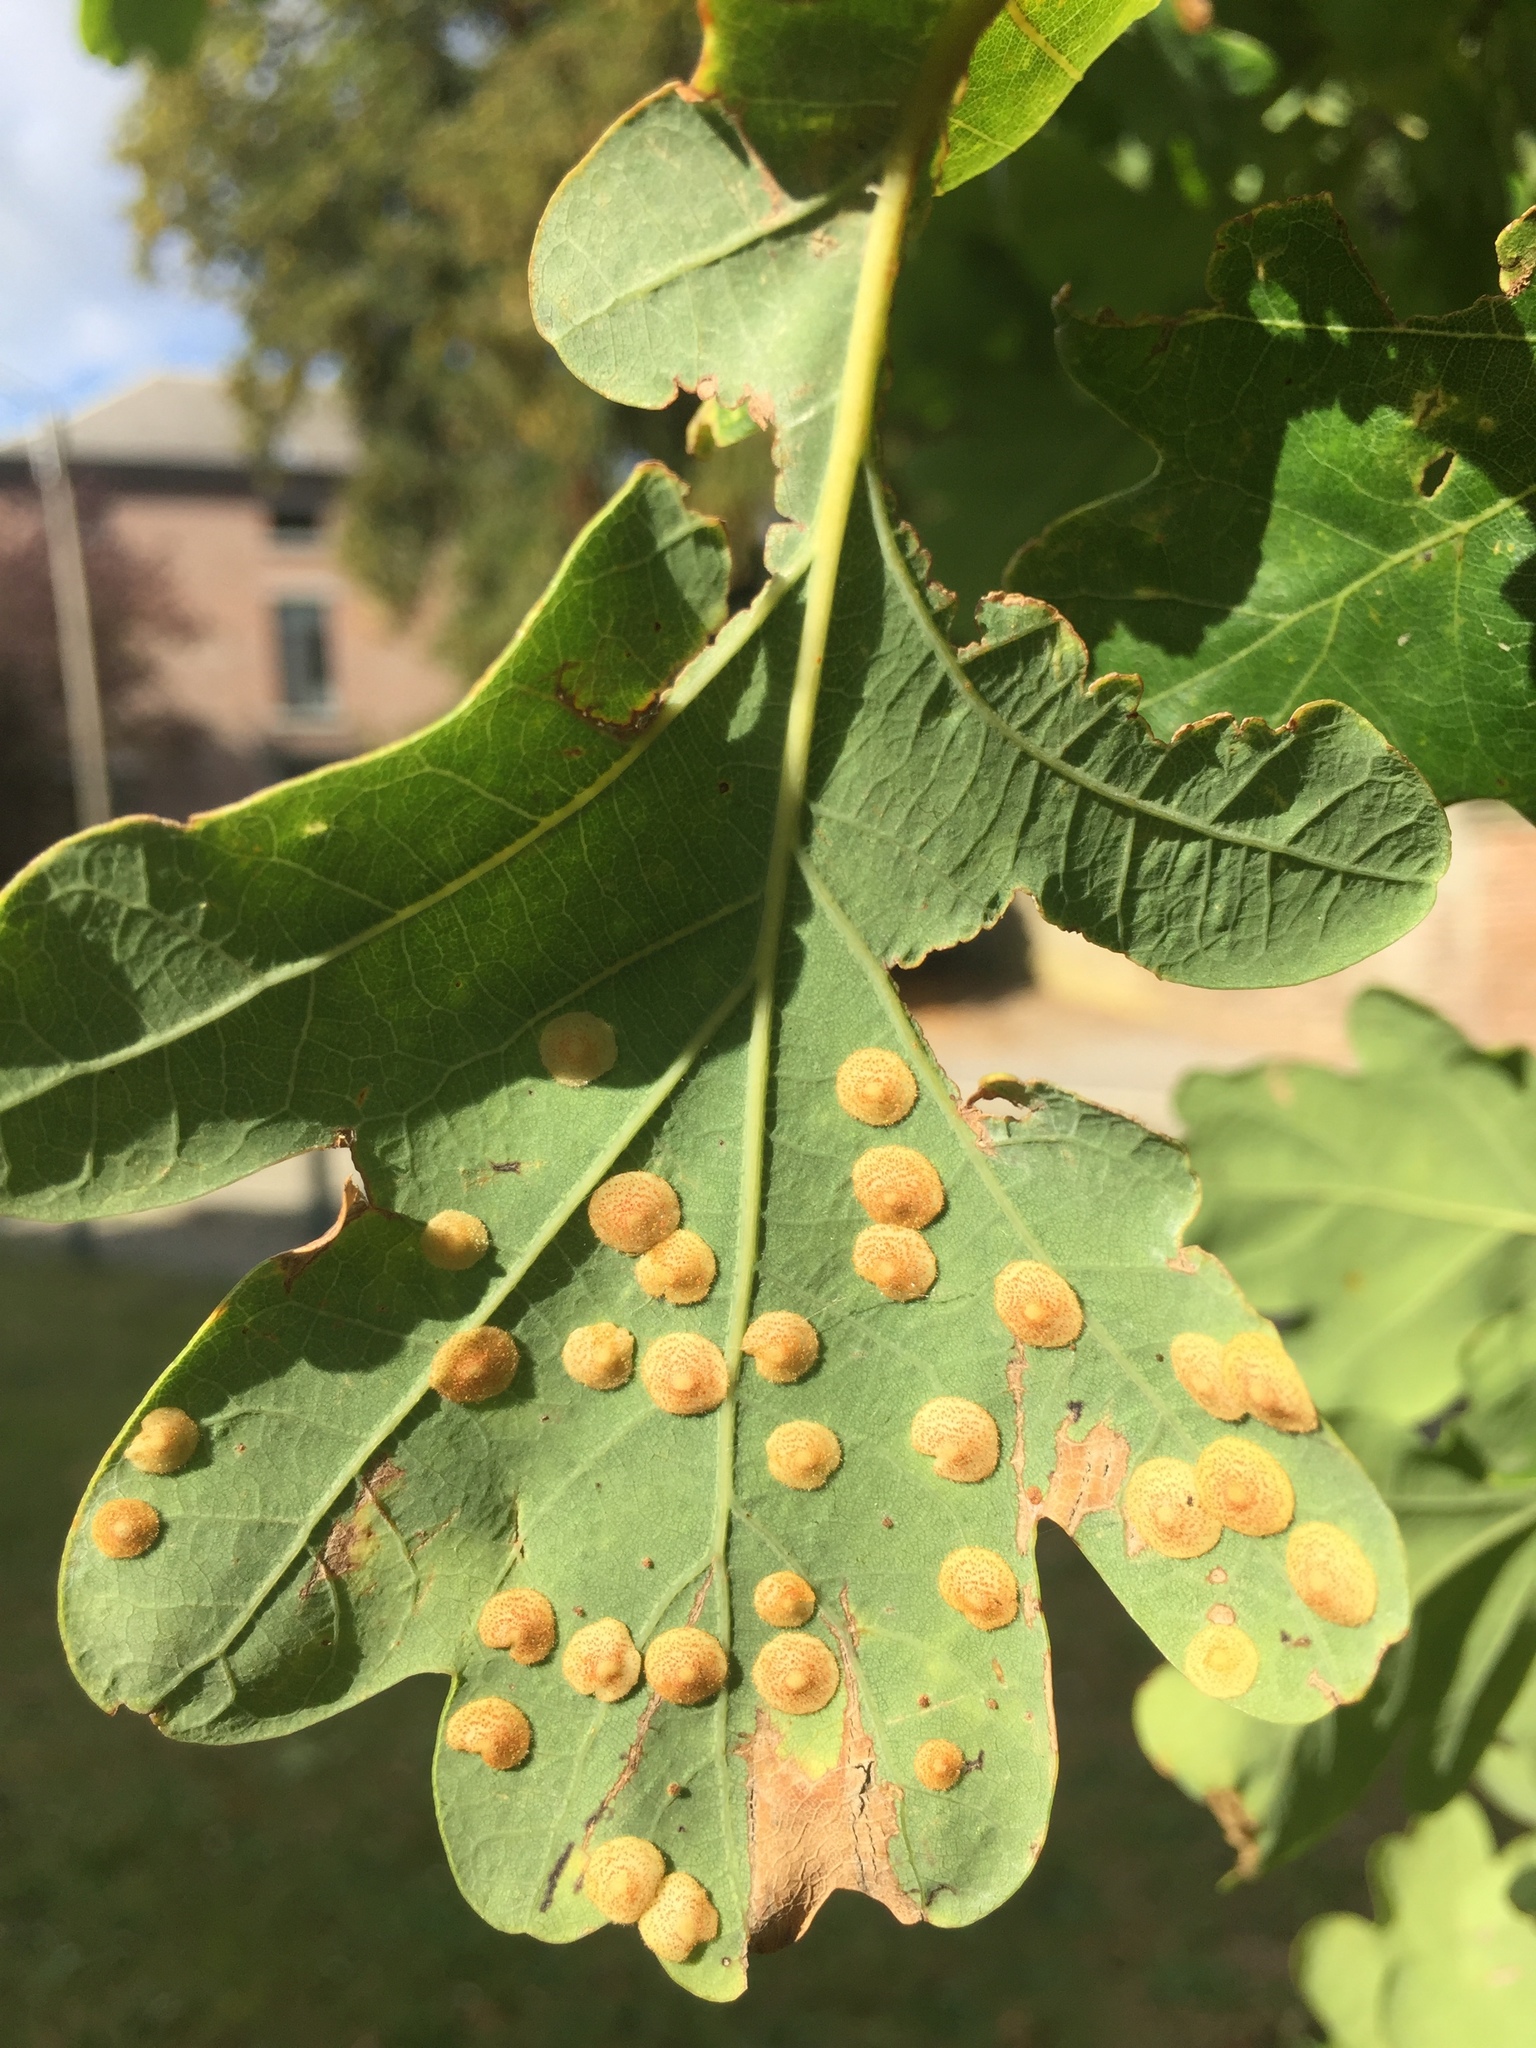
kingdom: Animalia
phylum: Arthropoda
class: Insecta
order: Hymenoptera
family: Cynipidae
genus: Neuroterus
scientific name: Neuroterus quercusbaccarum
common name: Common spangle gall
